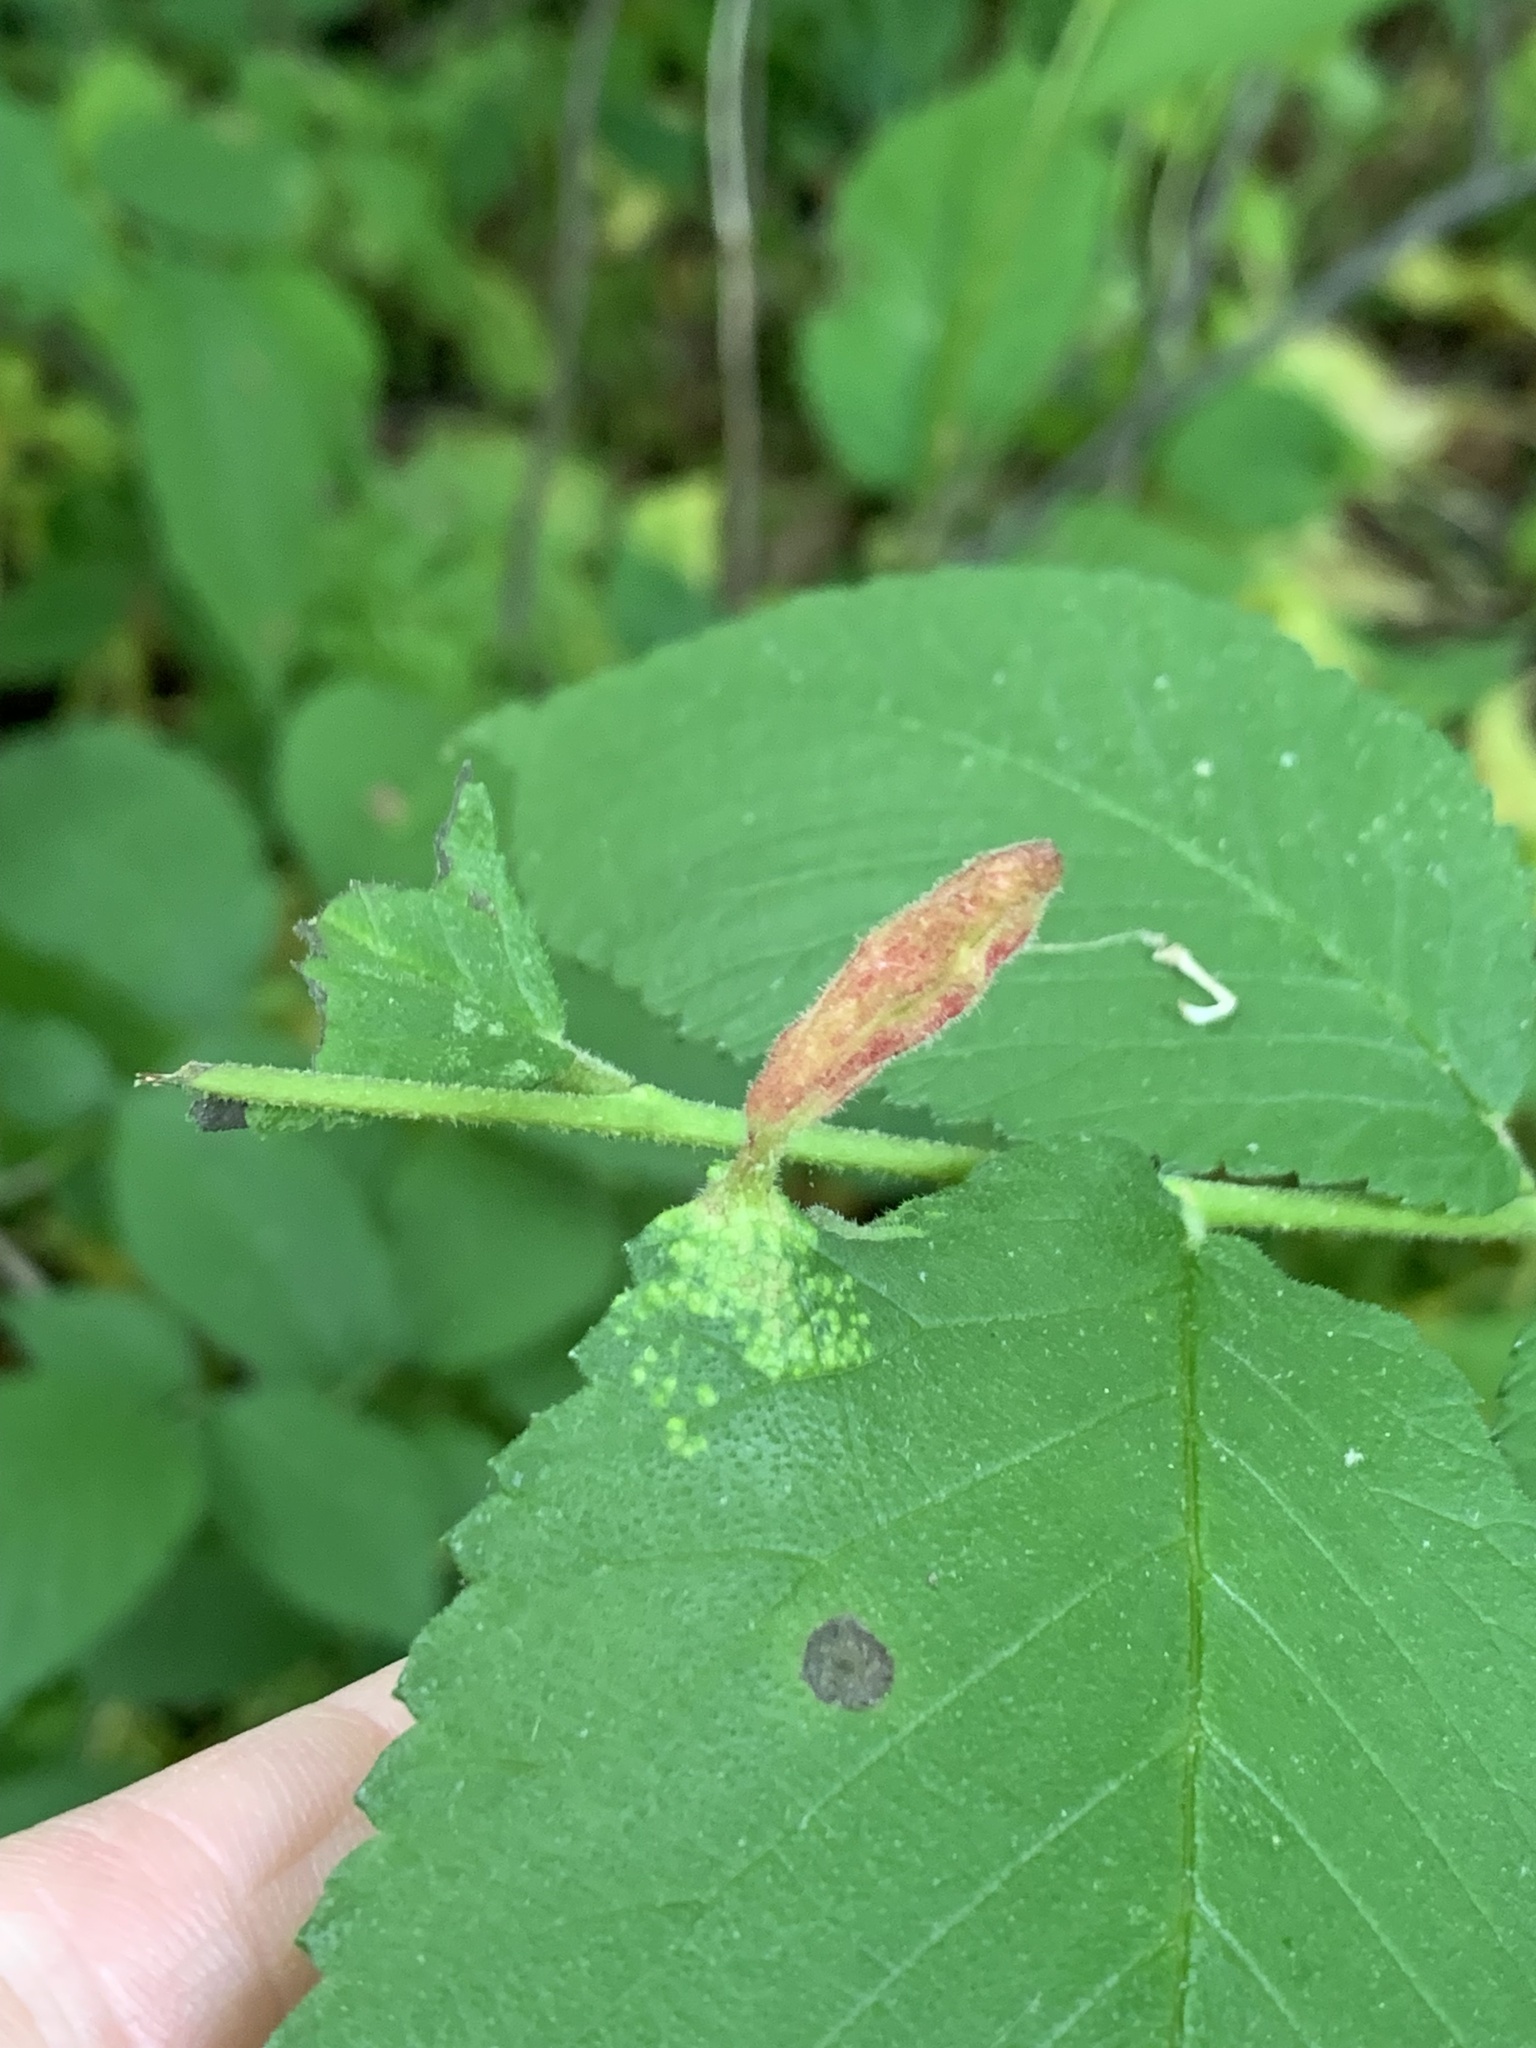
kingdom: Animalia
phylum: Arthropoda
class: Insecta
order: Hemiptera
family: Aphididae
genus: Tetraneura
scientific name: Tetraneura nigriabdominalis
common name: Aphid
